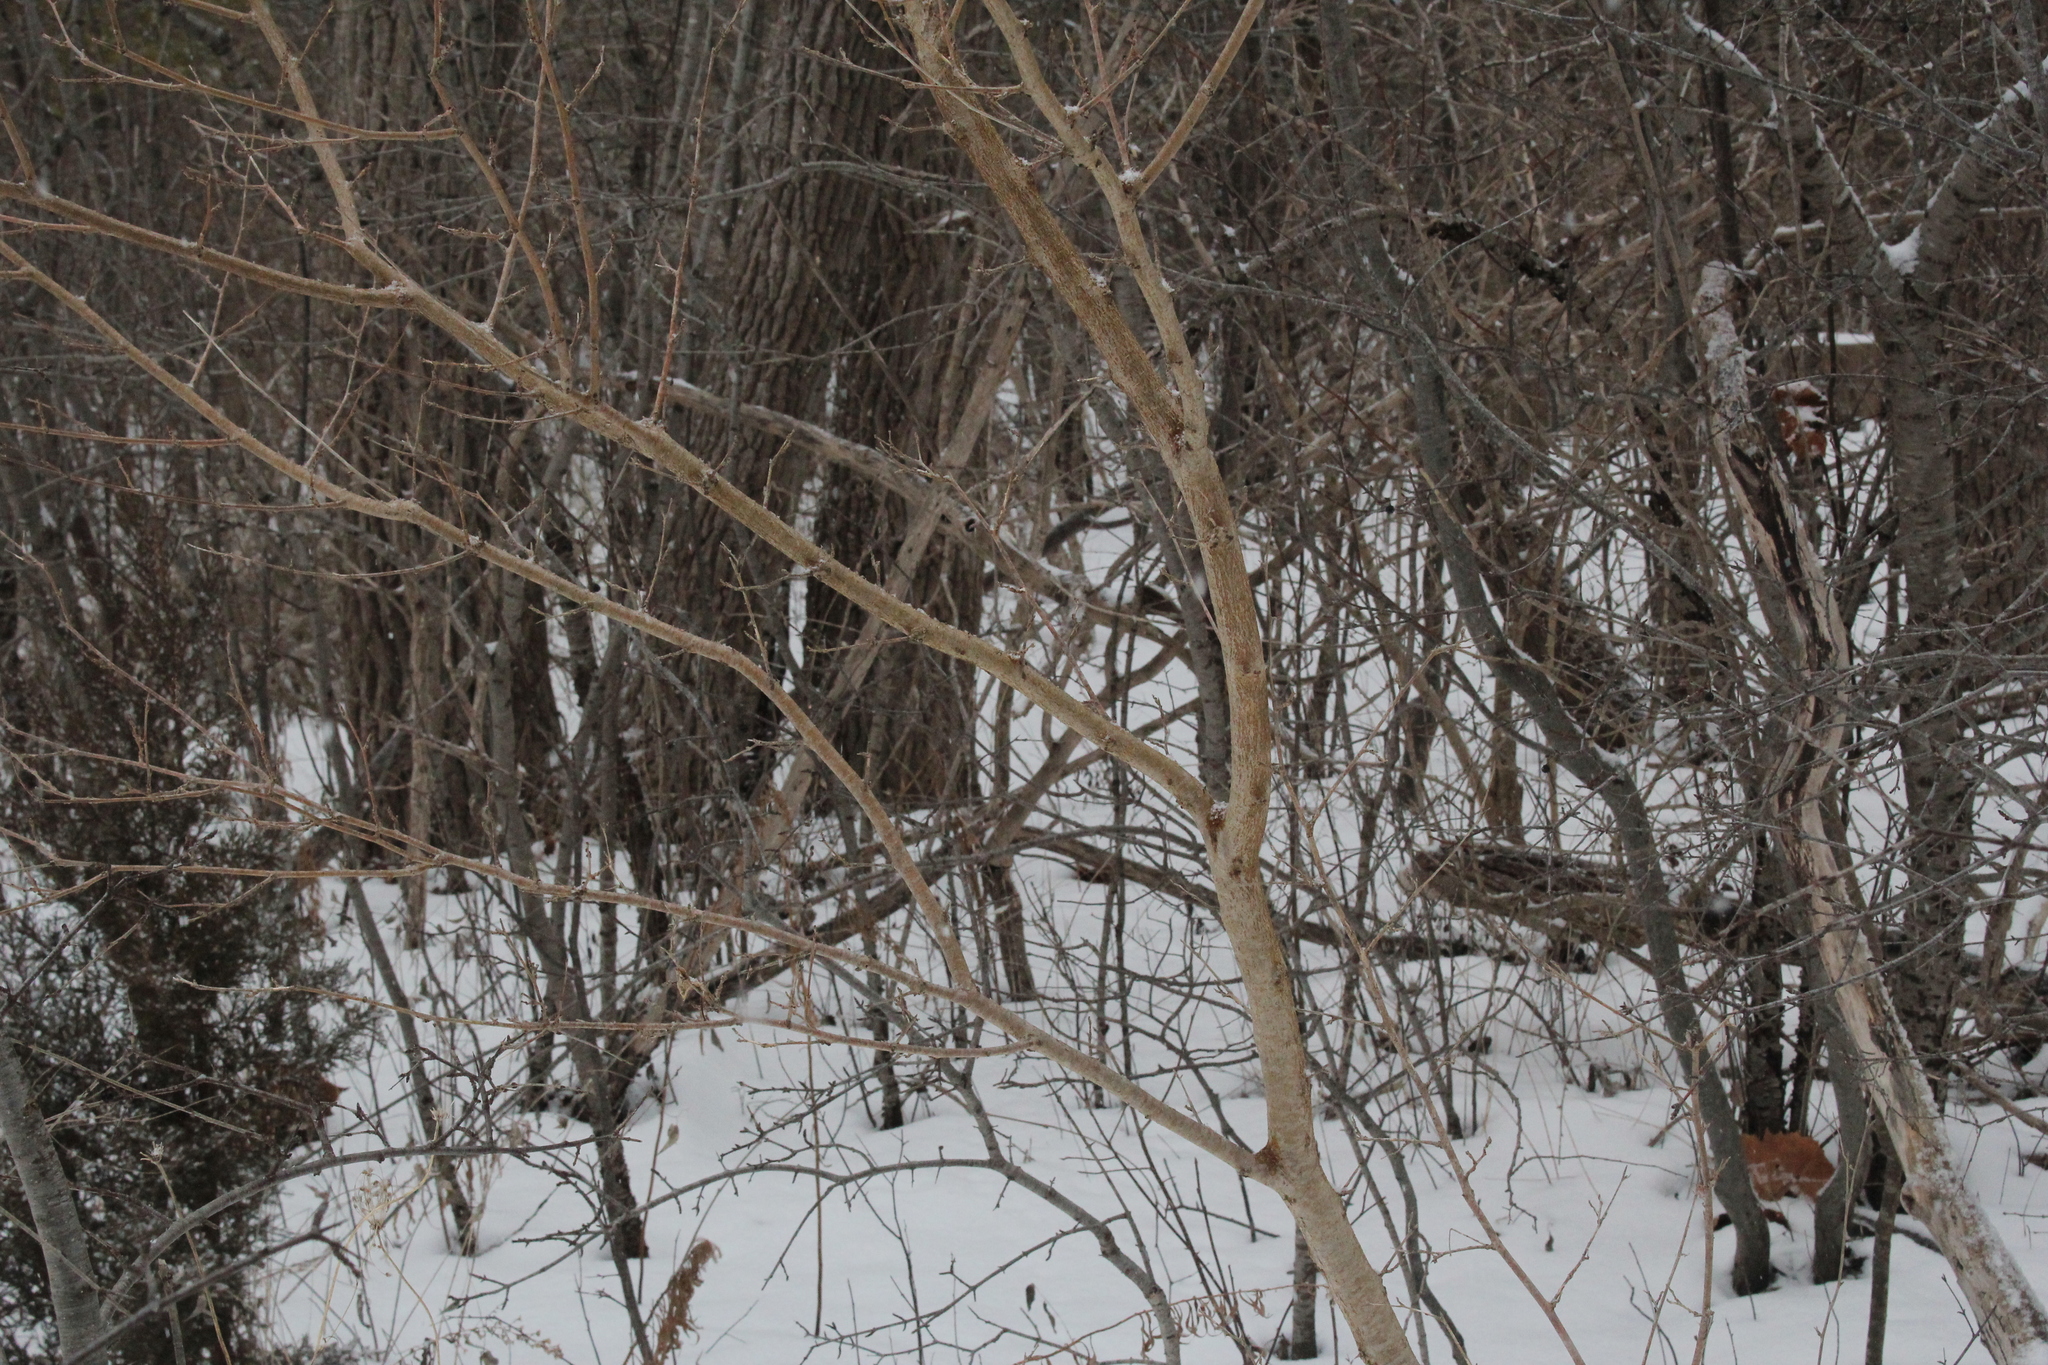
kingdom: Plantae
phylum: Tracheophyta
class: Magnoliopsida
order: Rosales
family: Moraceae
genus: Morus
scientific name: Morus alba
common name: White mulberry
